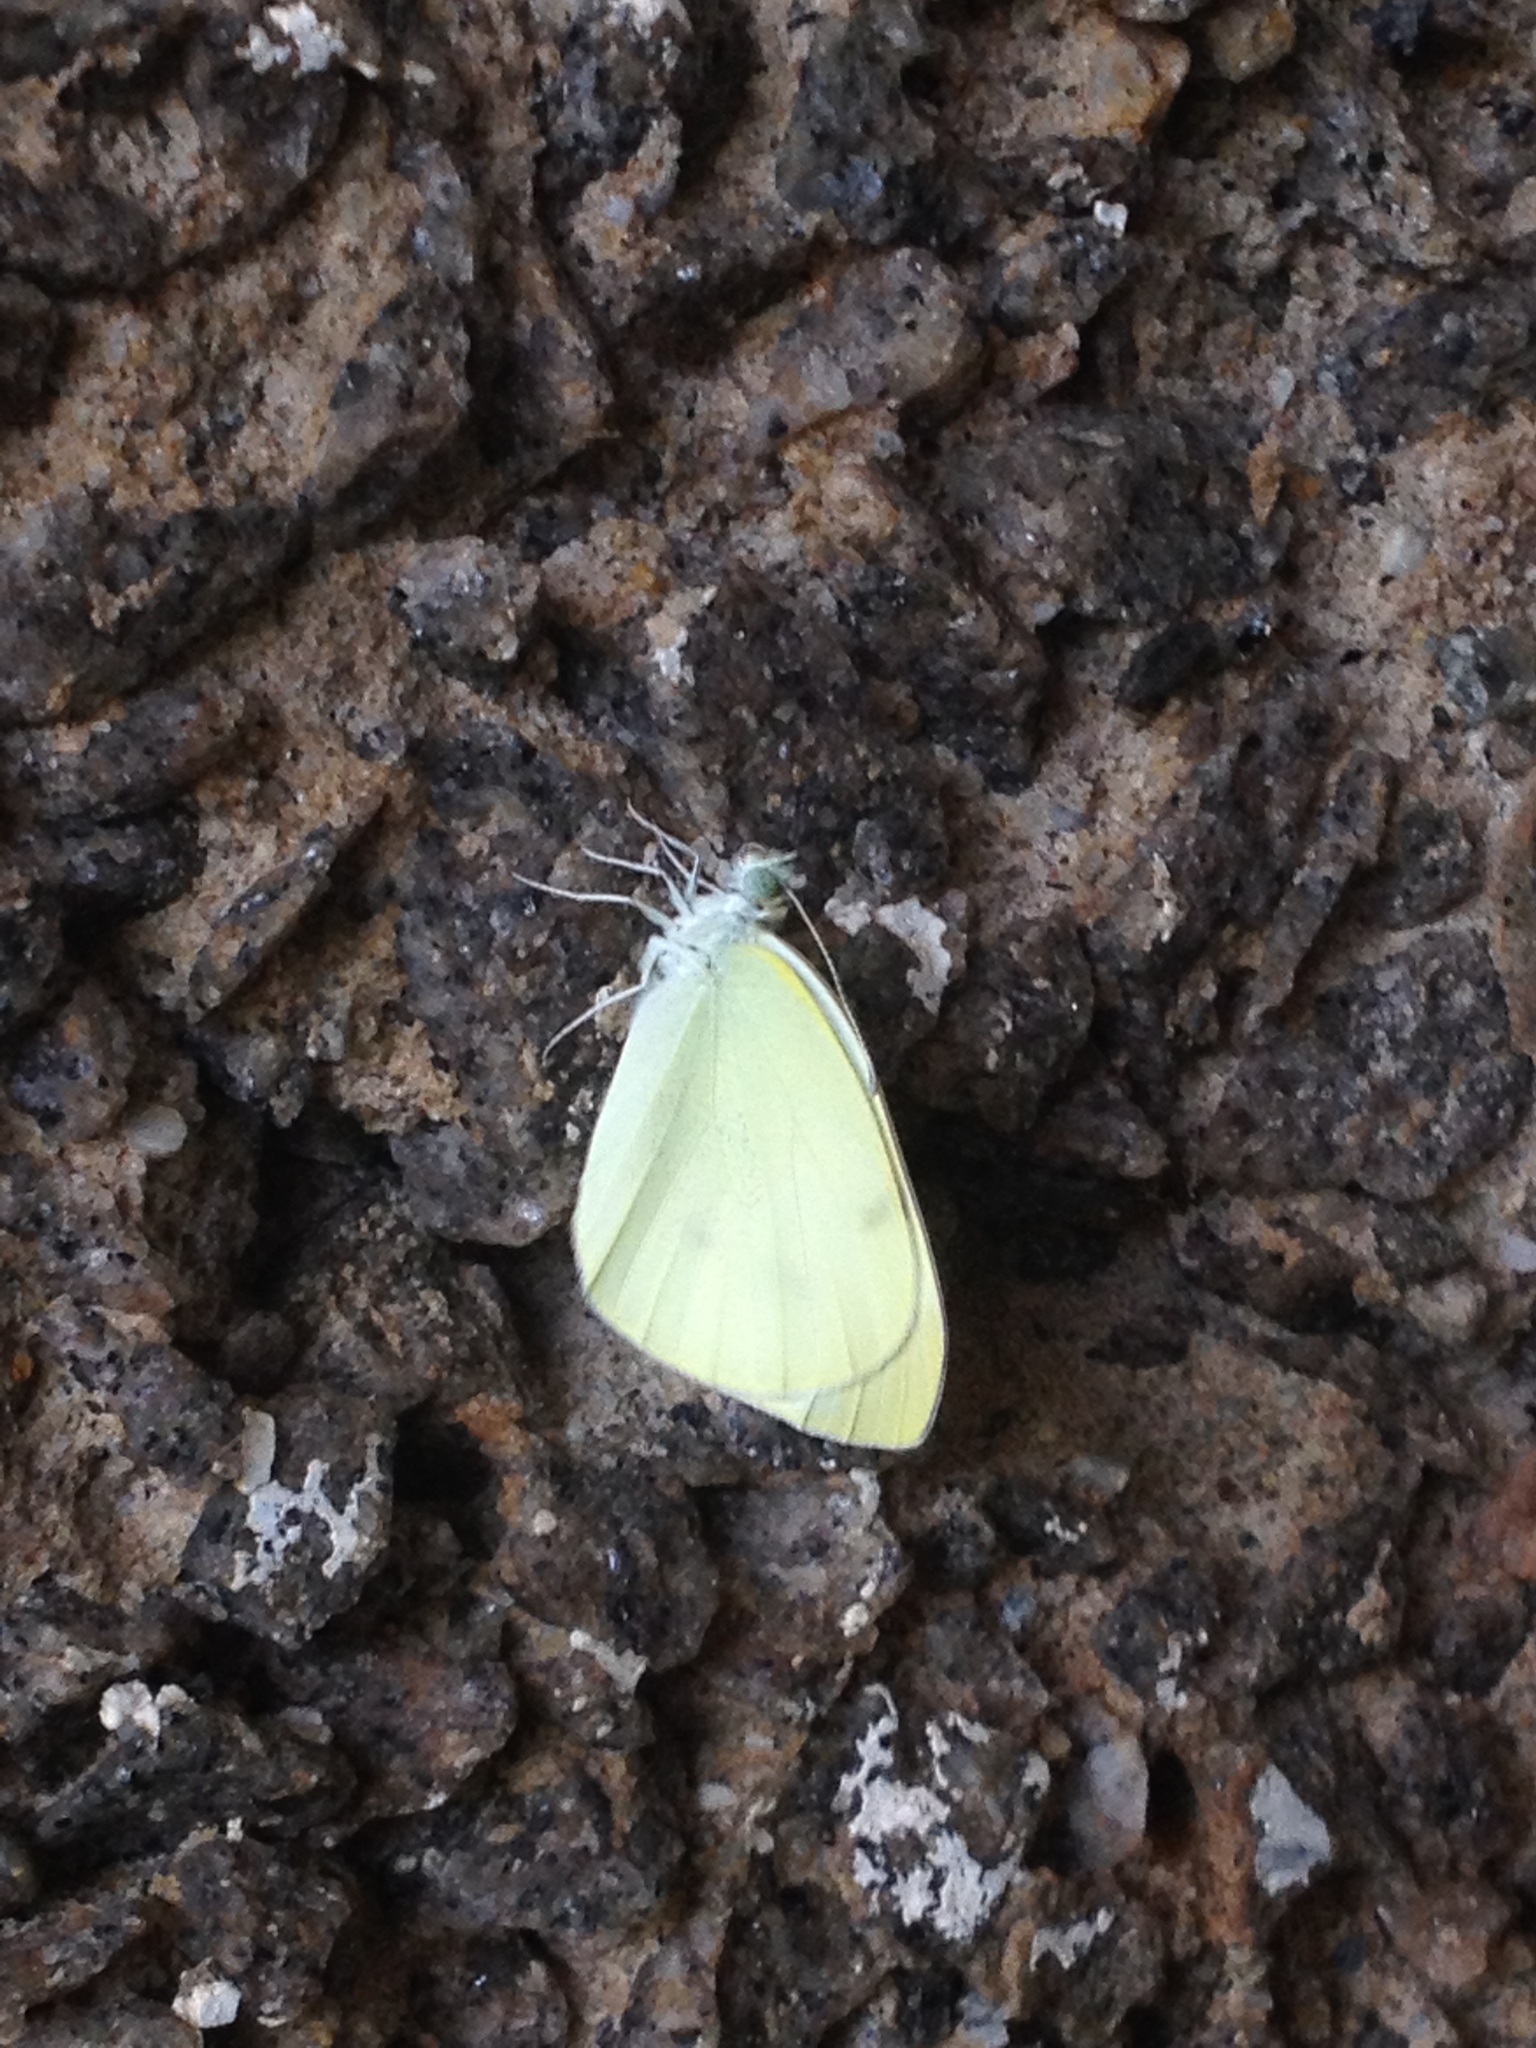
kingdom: Animalia
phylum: Arthropoda
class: Insecta
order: Lepidoptera
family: Pieridae
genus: Pieris
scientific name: Pieris rapae
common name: Small white
